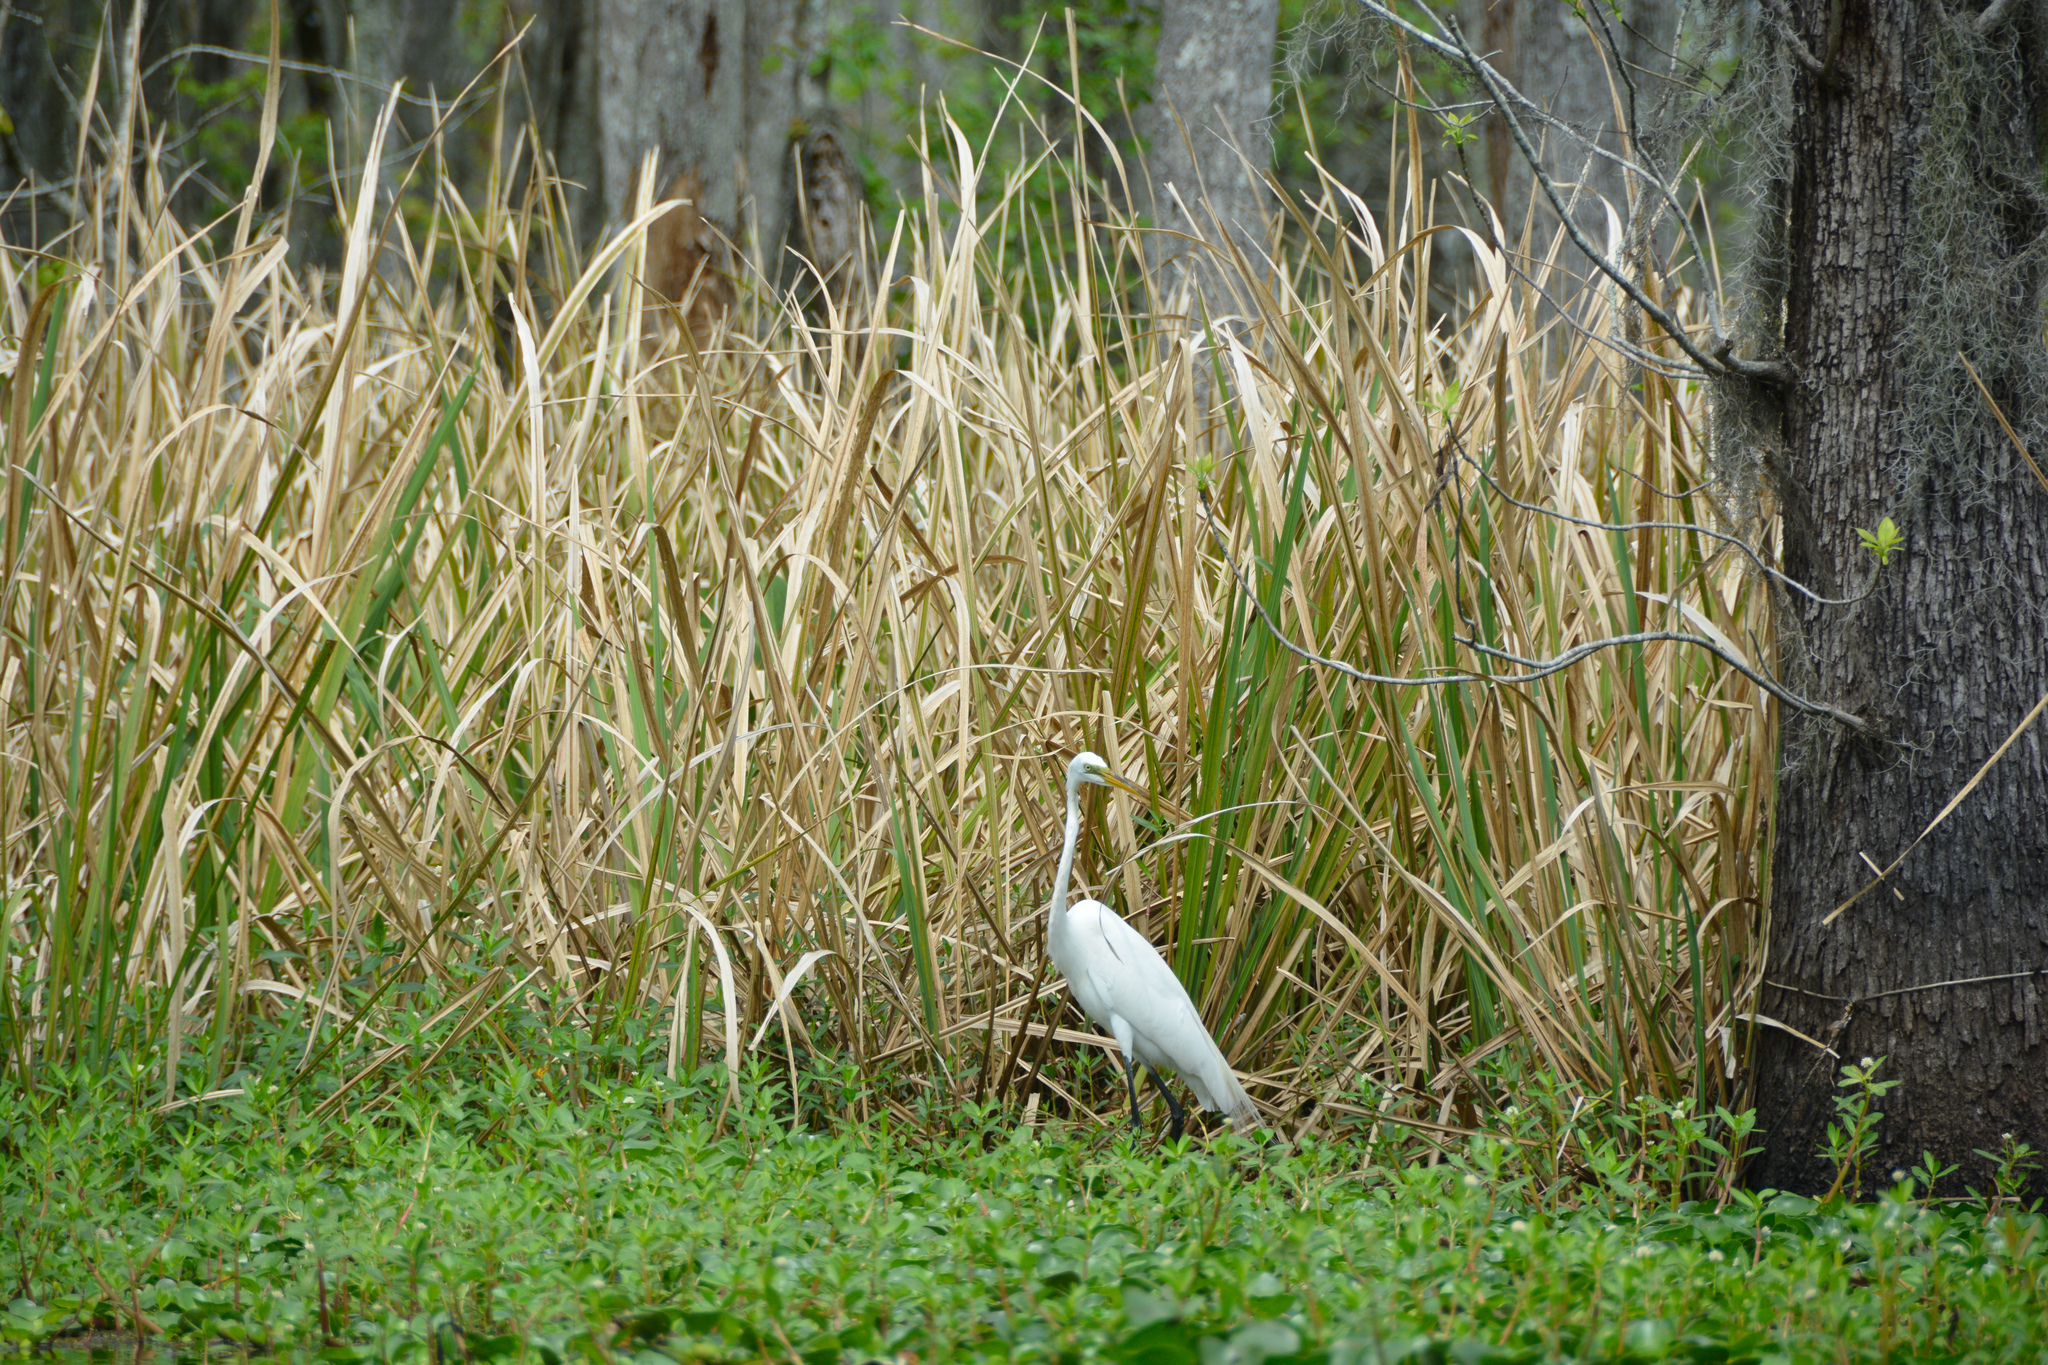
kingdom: Animalia
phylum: Chordata
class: Aves
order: Pelecaniformes
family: Ardeidae
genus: Ardea
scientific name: Ardea alba
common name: Great egret
